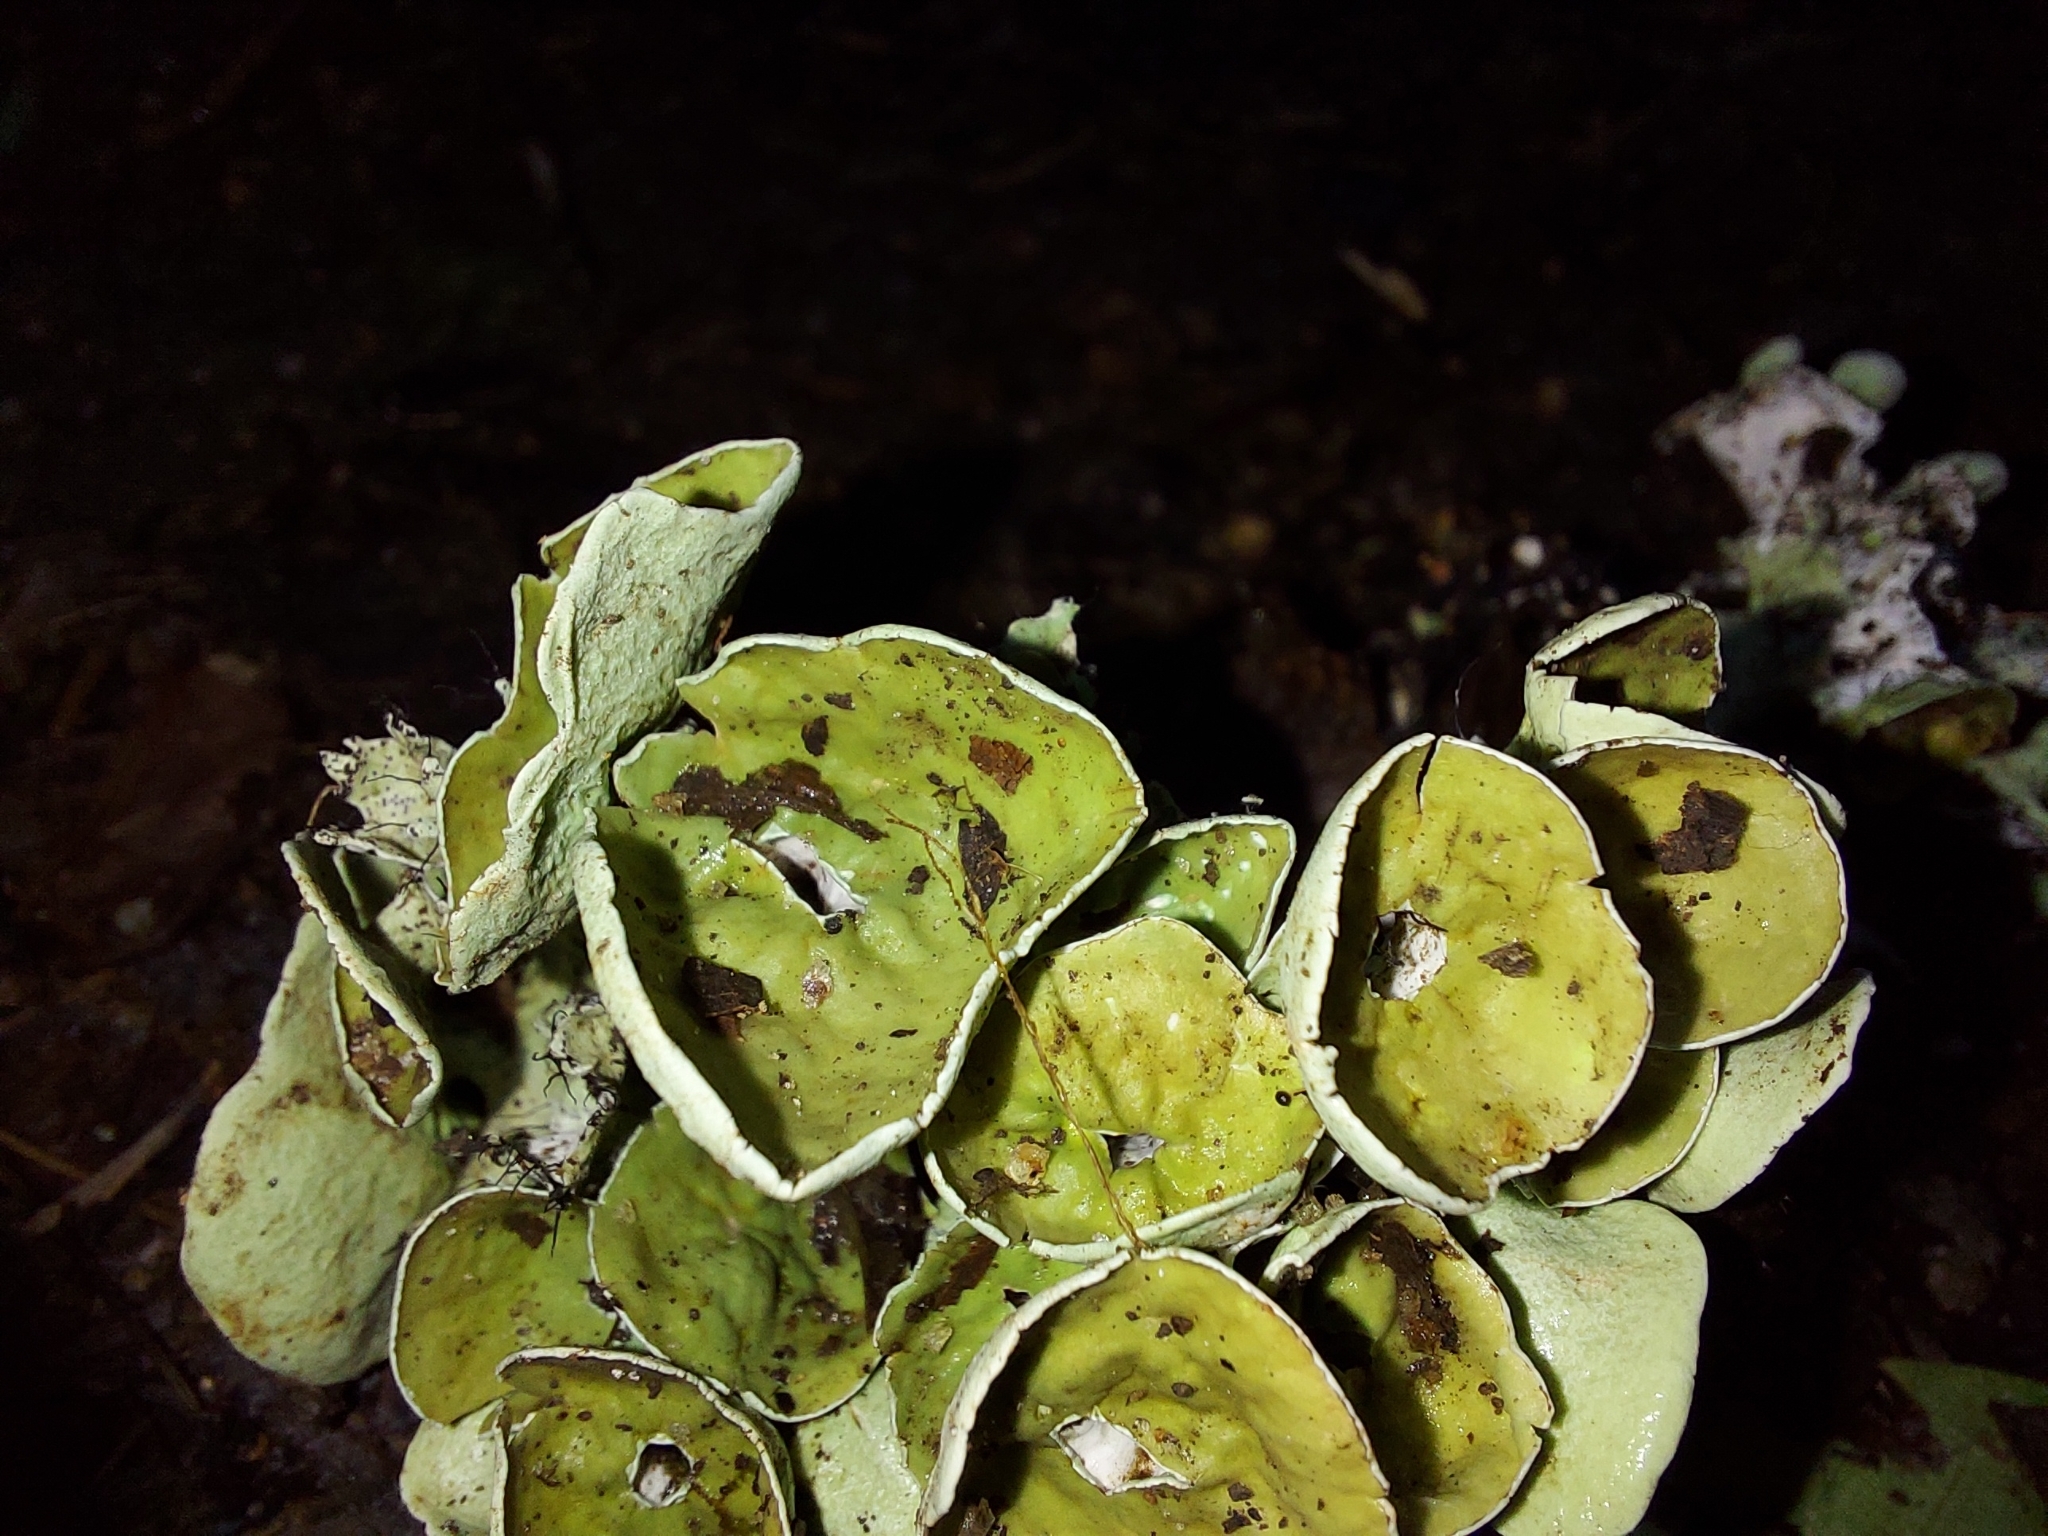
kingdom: Fungi
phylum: Ascomycota
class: Lecanoromycetes
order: Lecanorales
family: Parmeliaceae
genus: Parmotrema
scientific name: Parmotrema perforatum
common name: Perforated ruffle lichen
